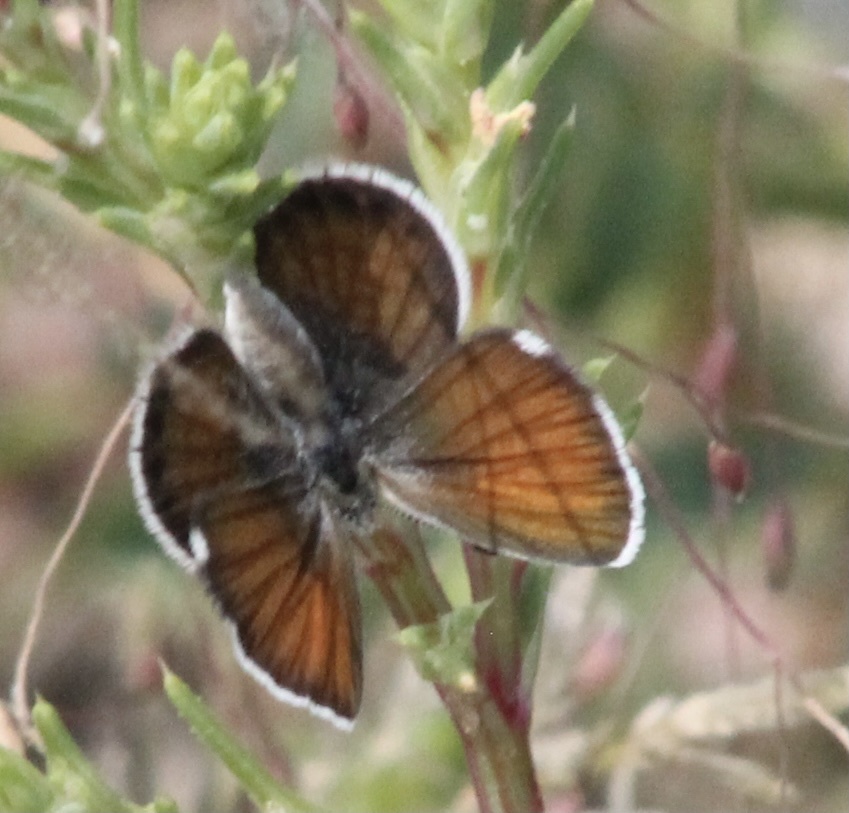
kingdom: Animalia
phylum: Arthropoda
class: Insecta
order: Lepidoptera
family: Lycaenidae
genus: Brephidium
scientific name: Brephidium exilis
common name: Pygmy blue
